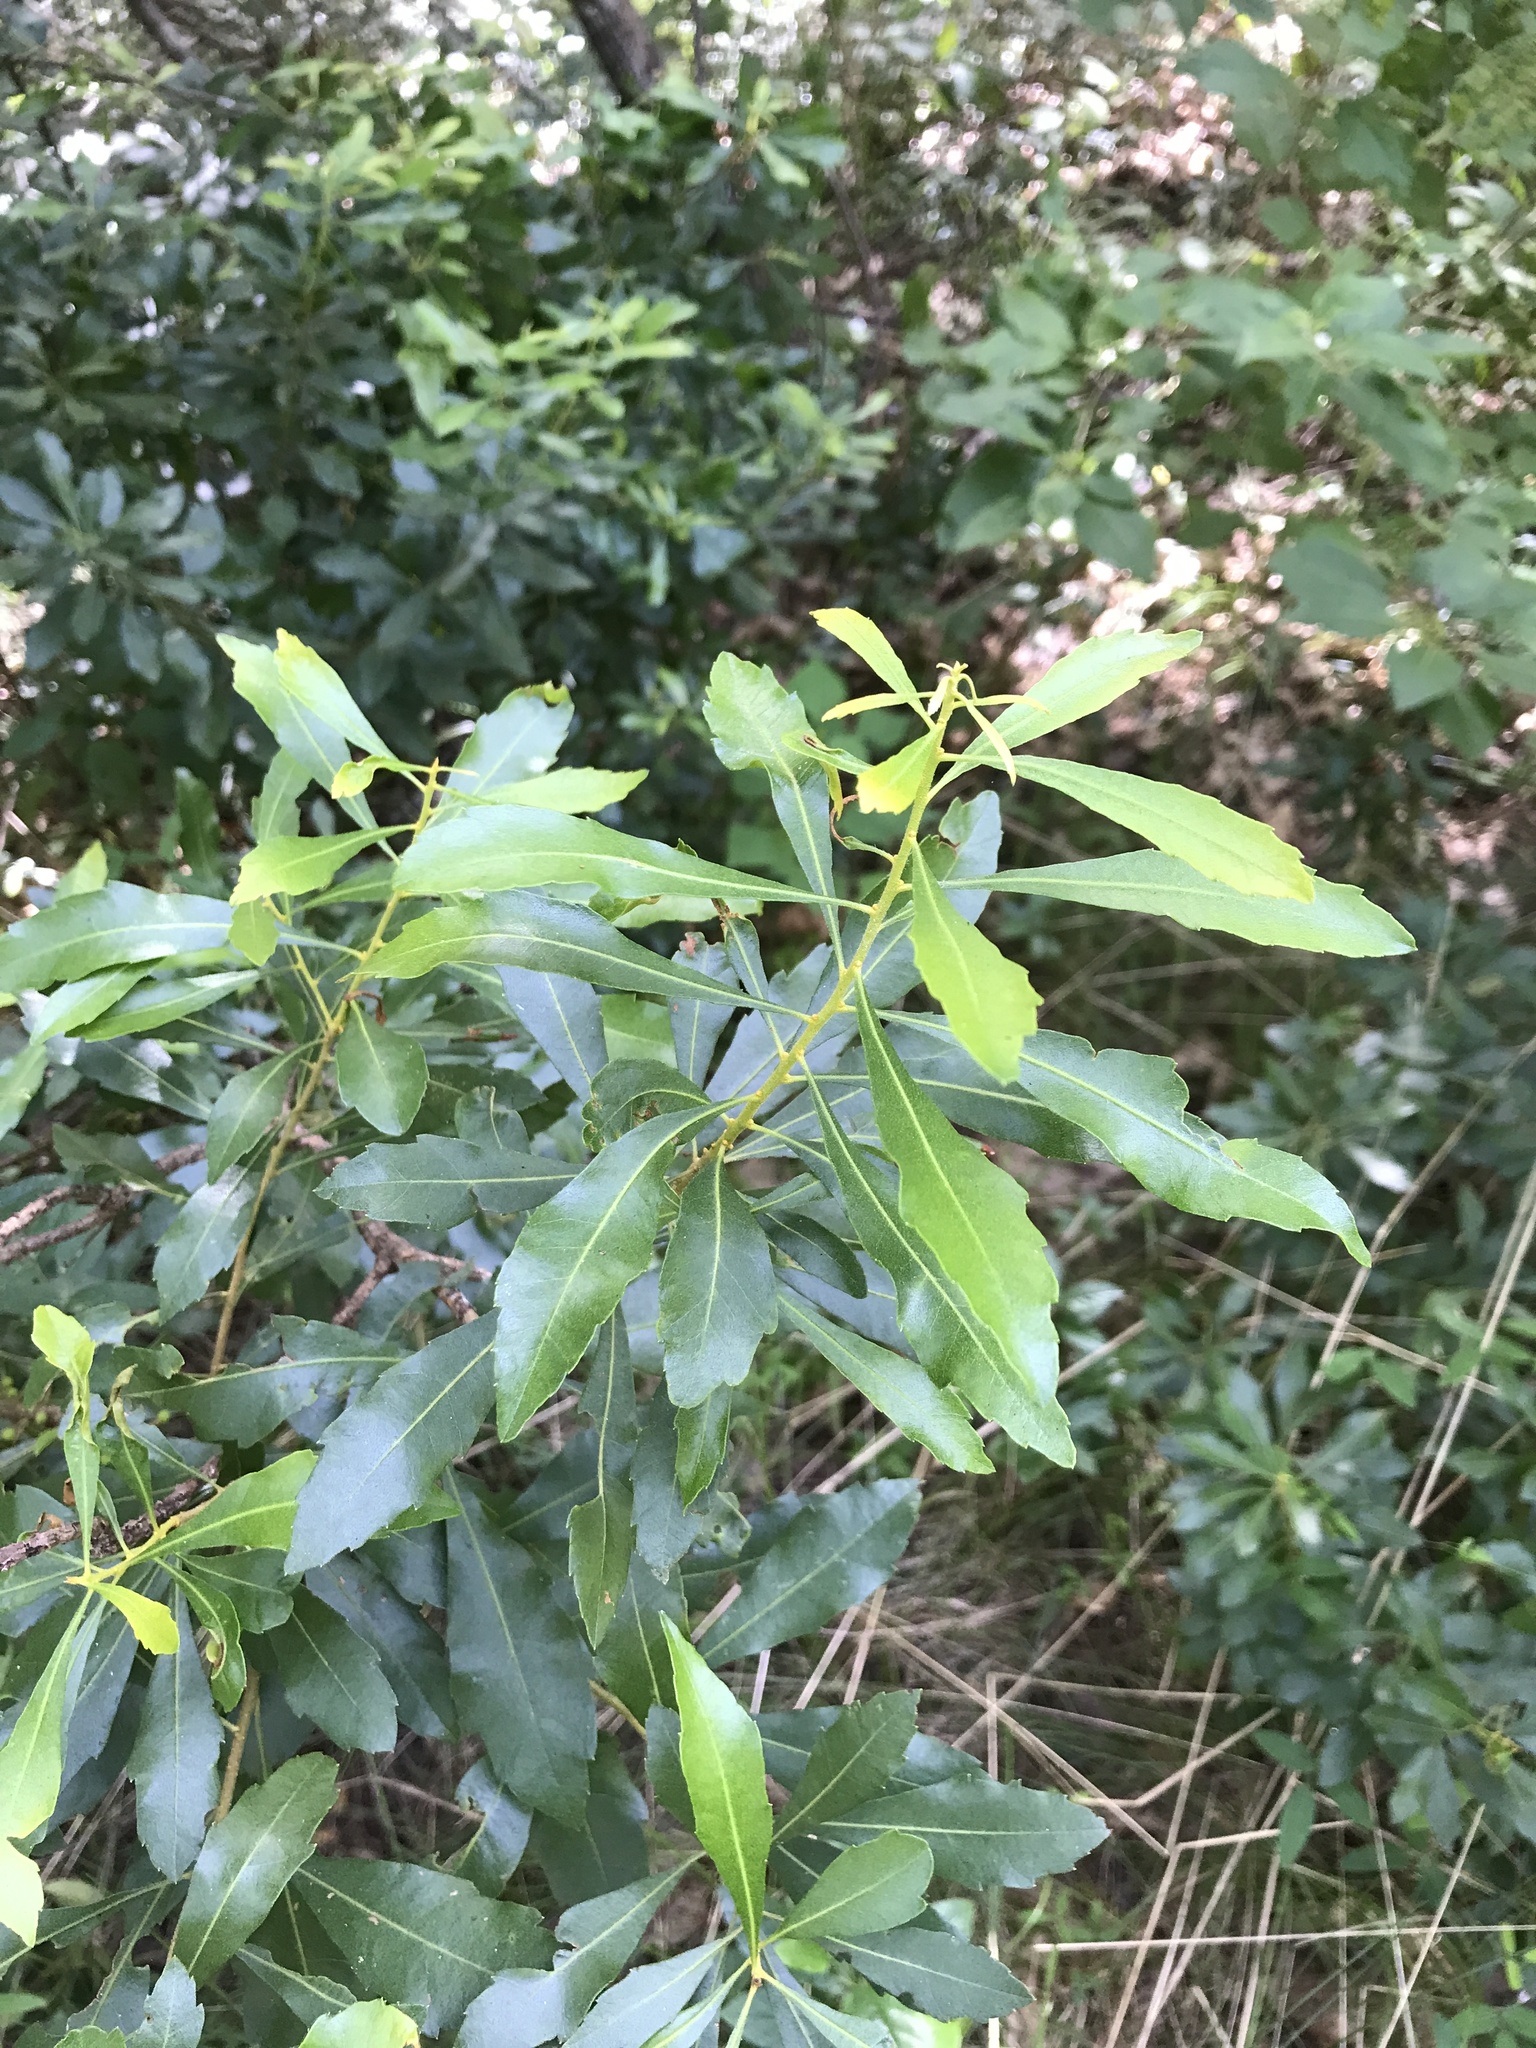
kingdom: Plantae
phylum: Tracheophyta
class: Magnoliopsida
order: Fagales
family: Myricaceae
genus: Morella
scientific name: Morella cerifera
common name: Wax myrtle
